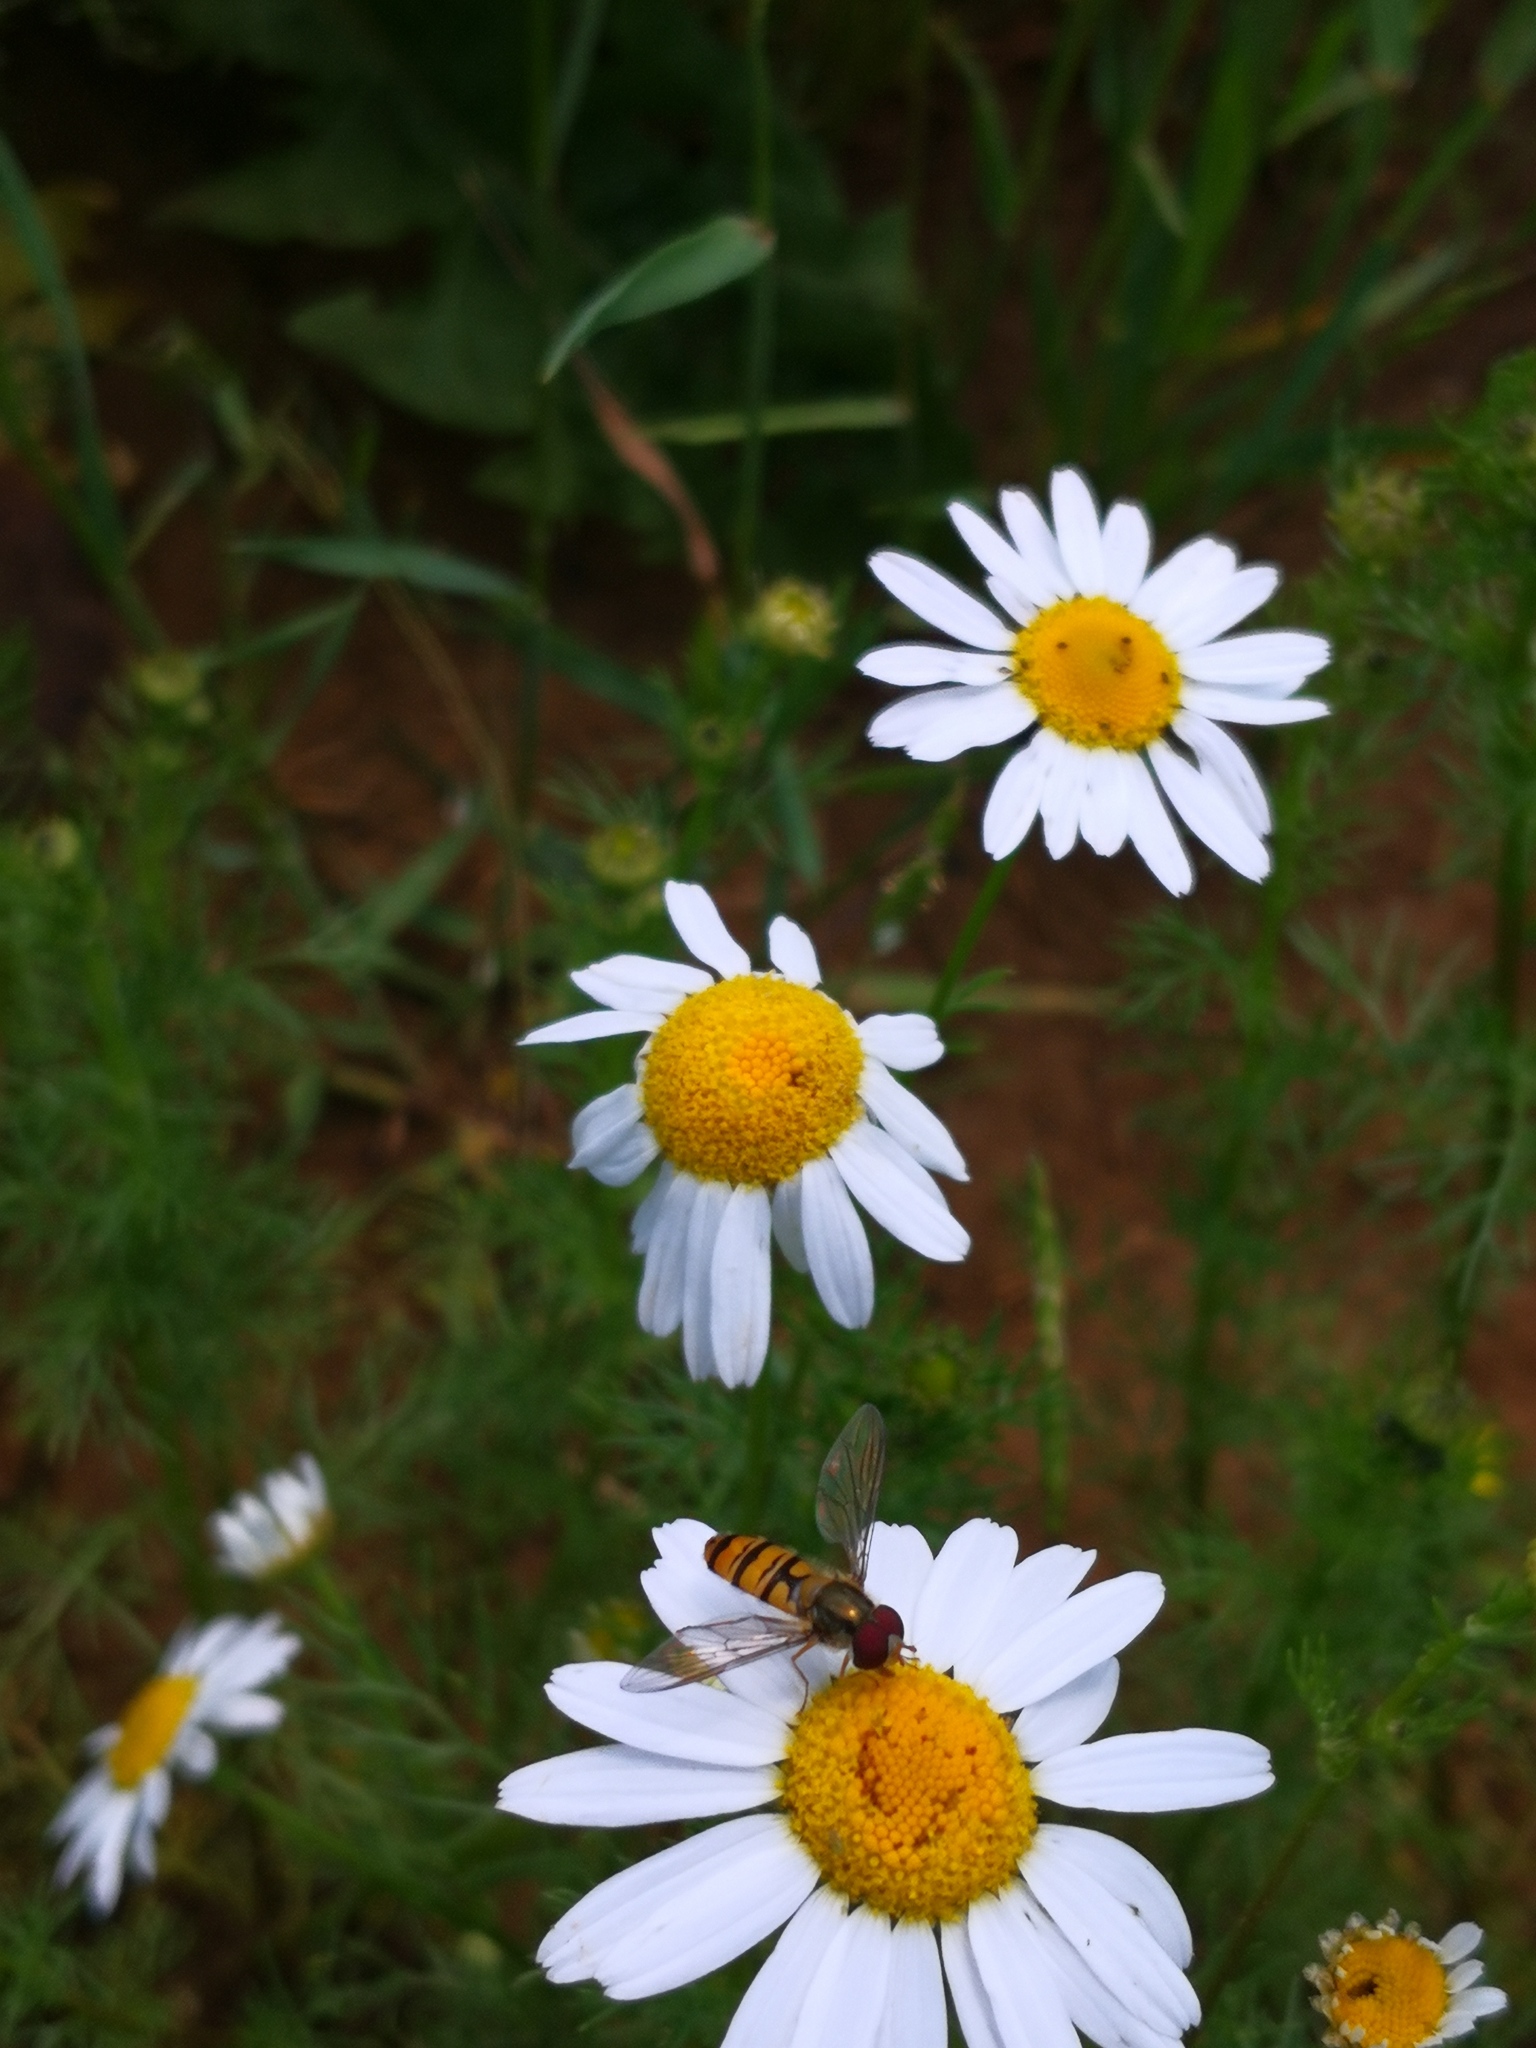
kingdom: Animalia
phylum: Arthropoda
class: Insecta
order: Diptera
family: Syrphidae
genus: Episyrphus
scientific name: Episyrphus balteatus
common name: Marmalade hoverfly
